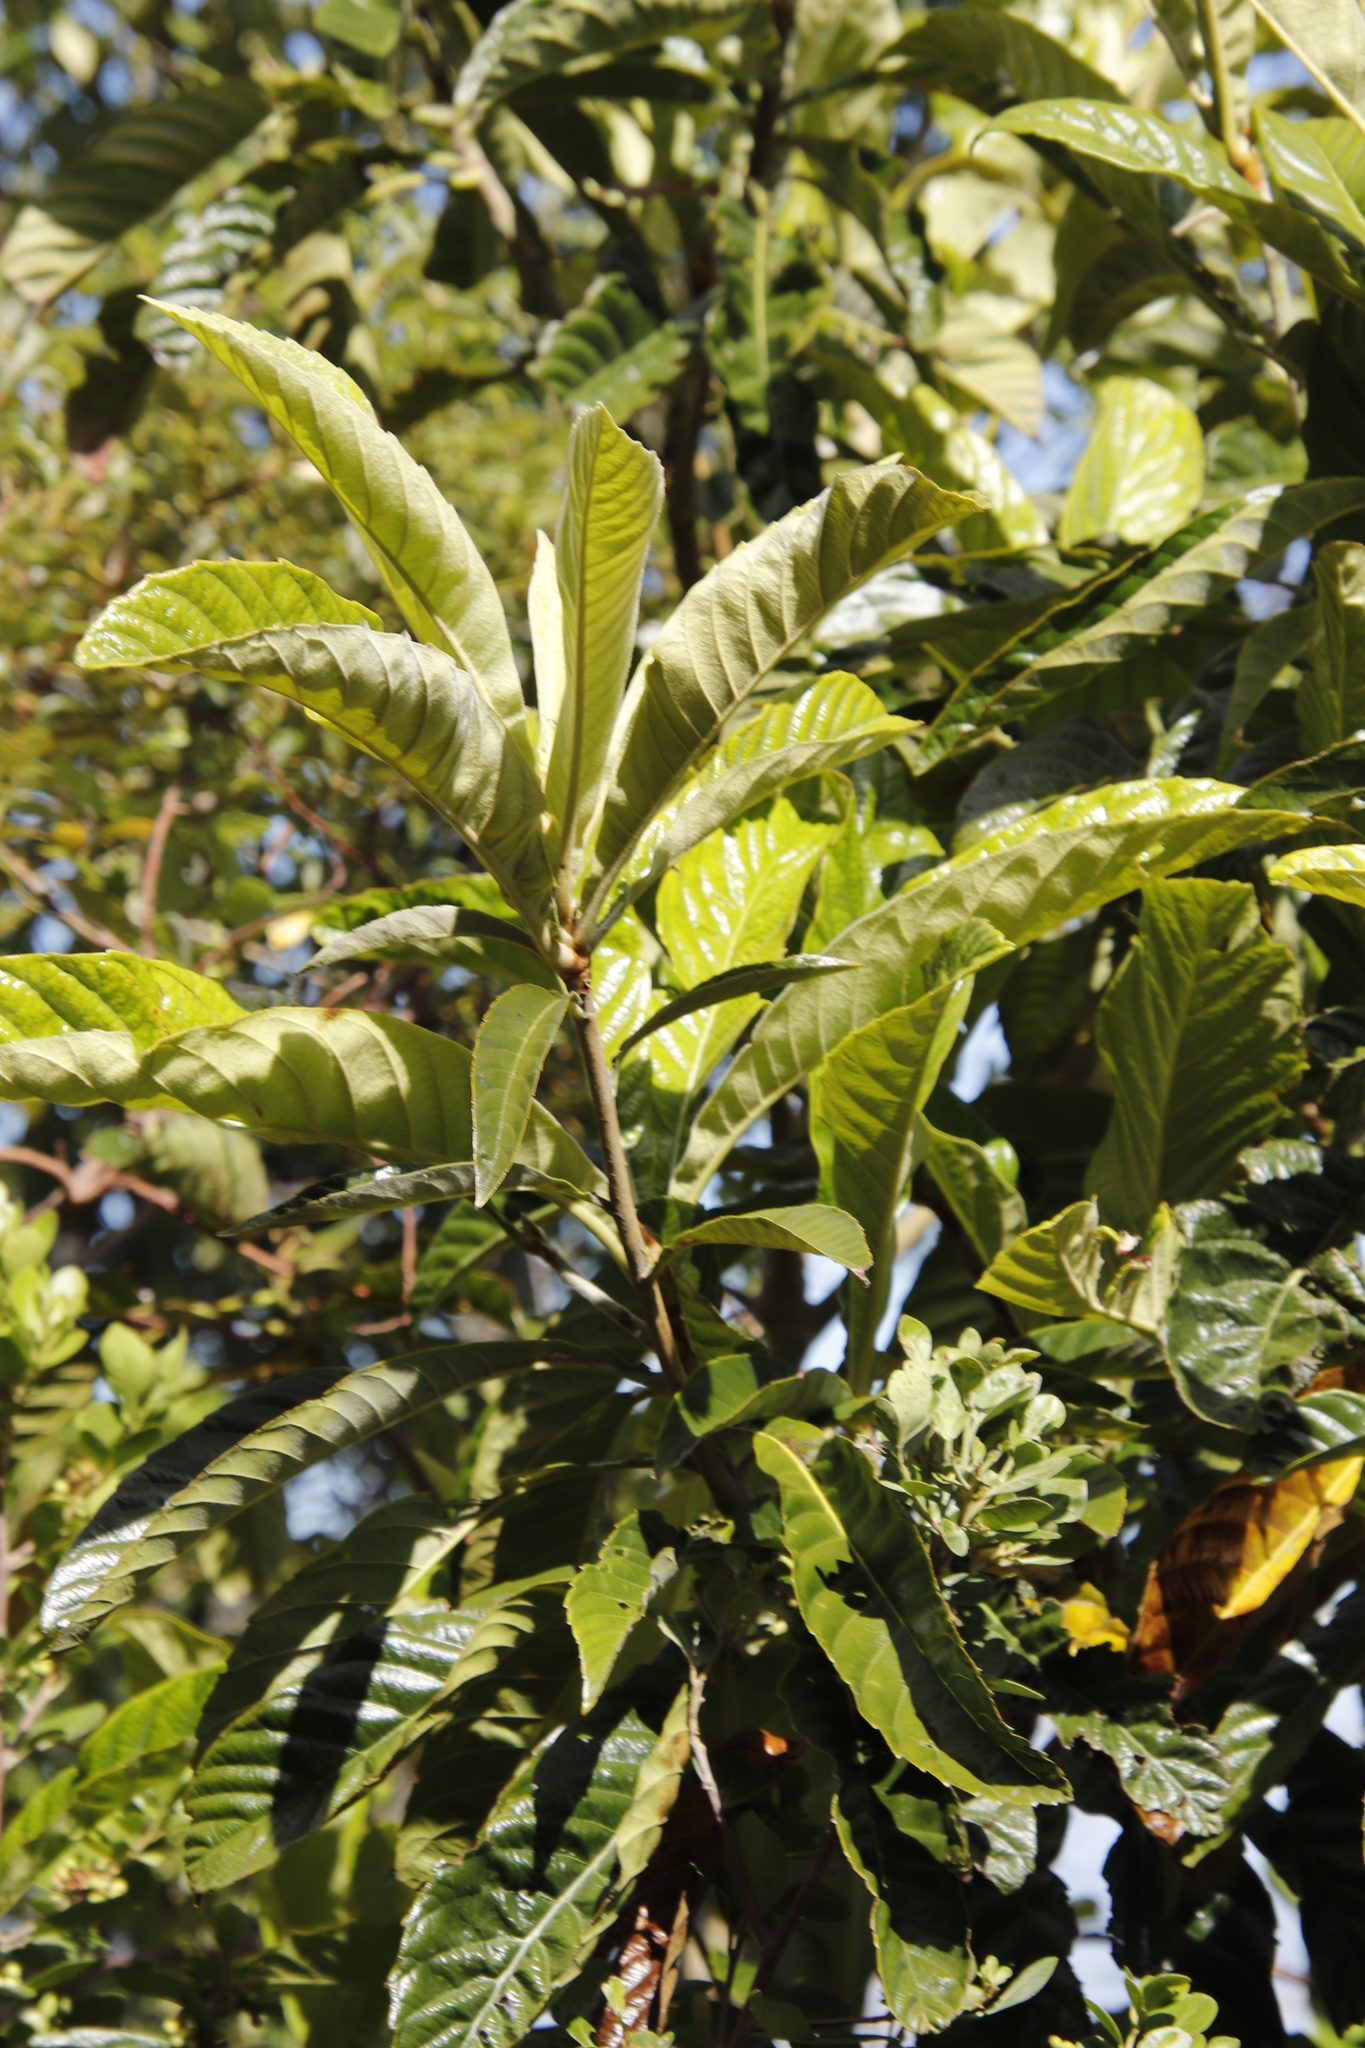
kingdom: Plantae
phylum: Tracheophyta
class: Magnoliopsida
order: Rosales
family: Rosaceae
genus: Rhaphiolepis
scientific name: Rhaphiolepis bibas
